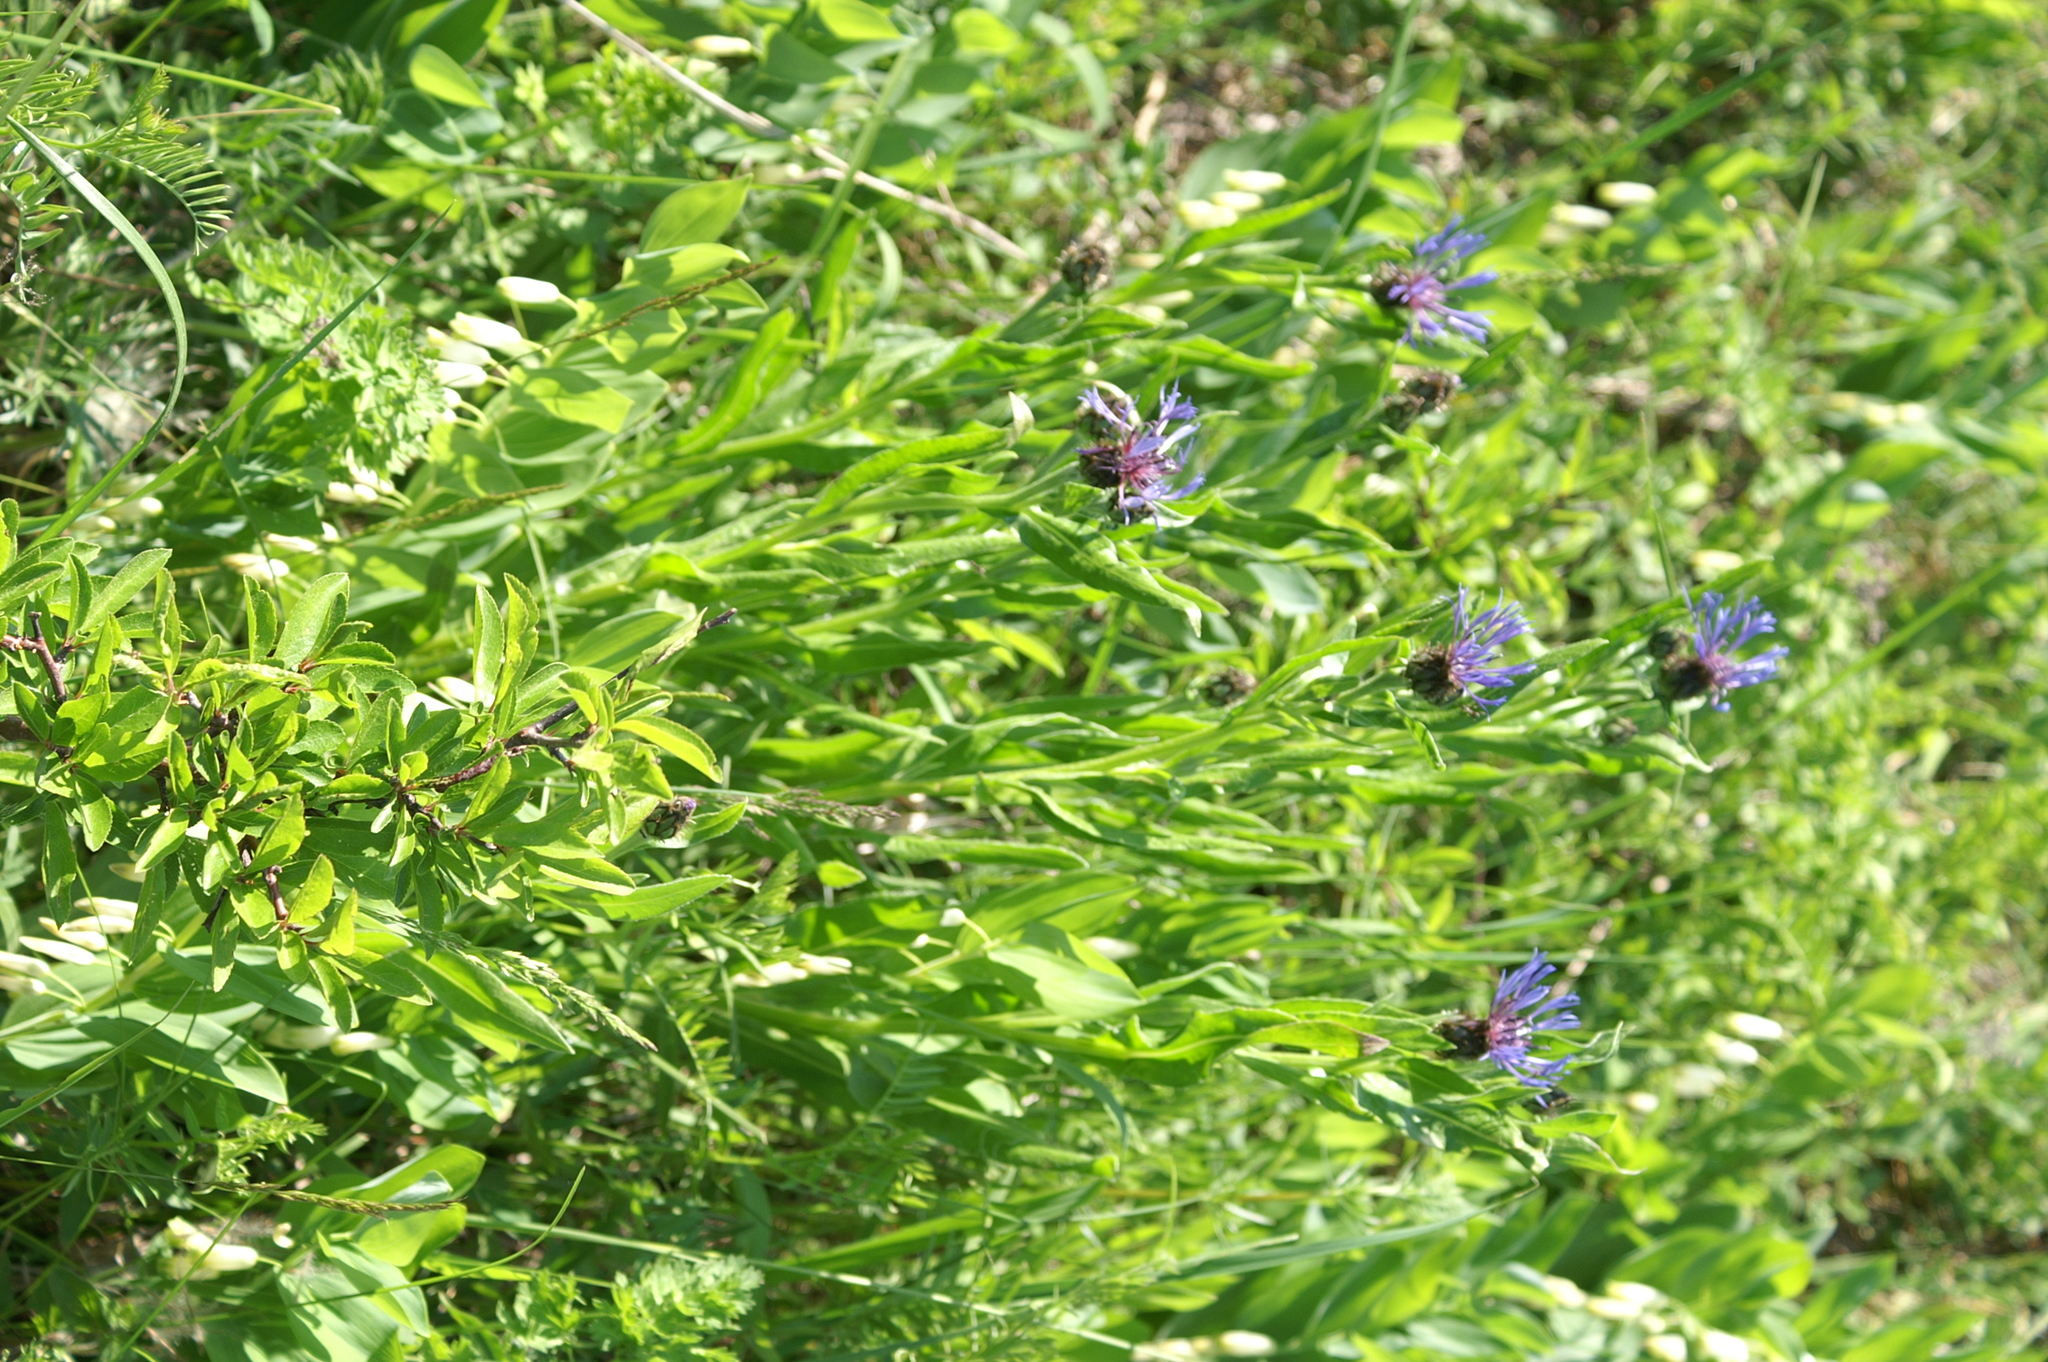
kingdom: Plantae
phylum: Tracheophyta
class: Magnoliopsida
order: Asterales
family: Asteraceae
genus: Centaurea
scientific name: Centaurea triumfettii
